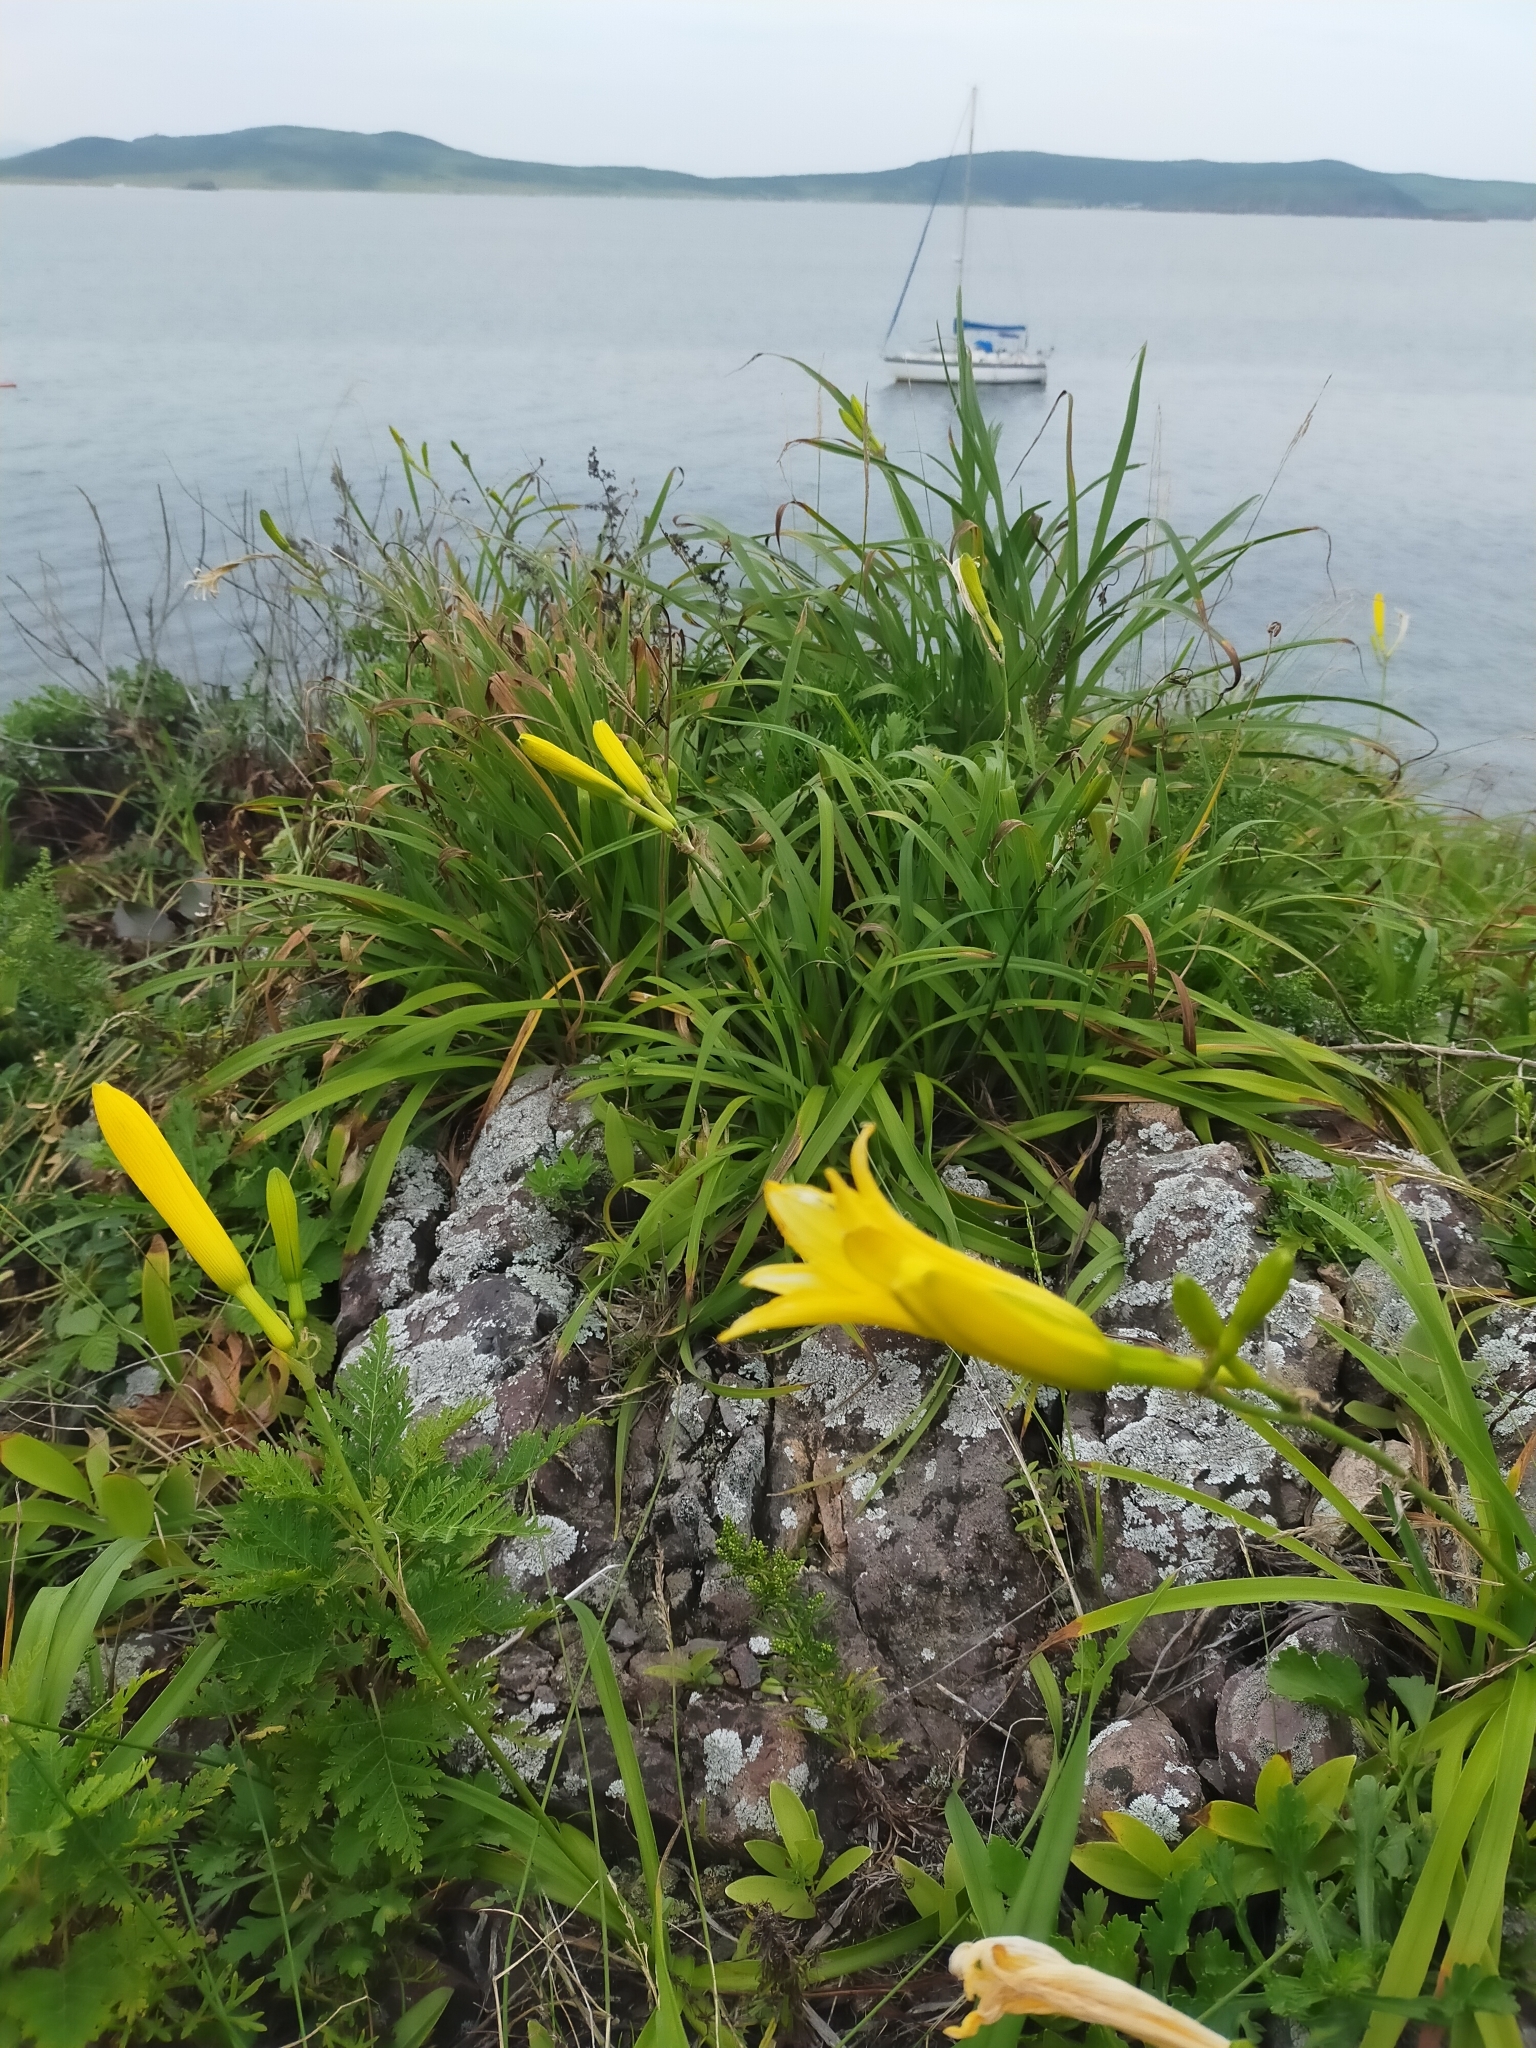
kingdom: Plantae
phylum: Tracheophyta
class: Liliopsida
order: Asparagales
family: Asphodelaceae
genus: Hemerocallis
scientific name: Hemerocallis minor
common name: Small daylily
